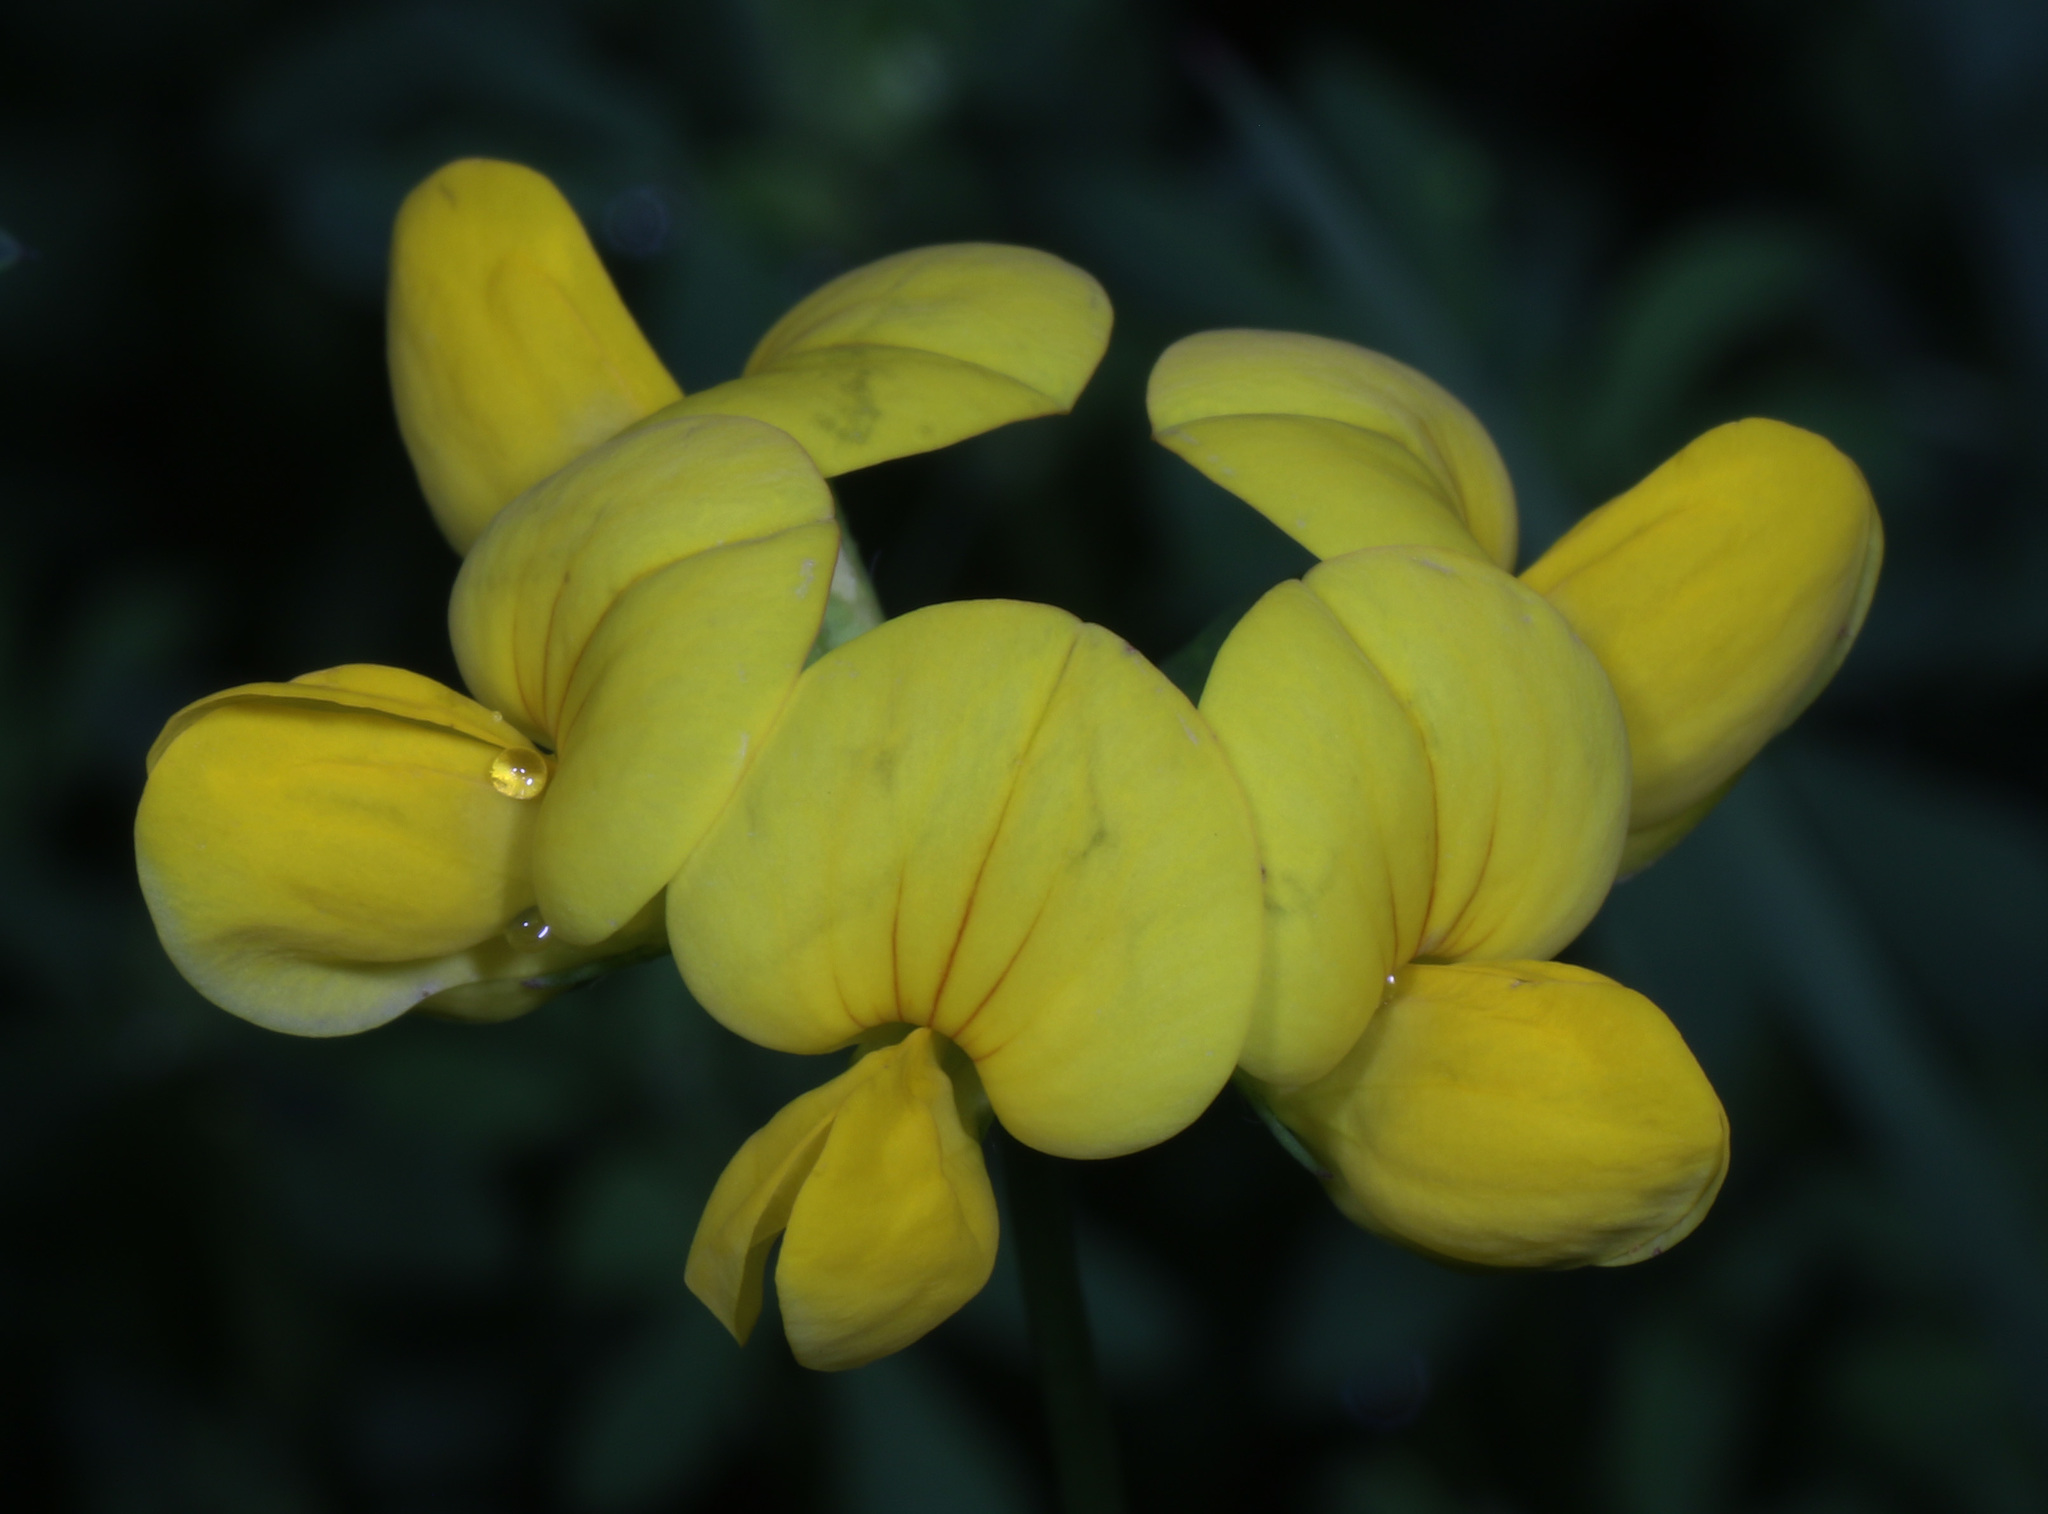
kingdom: Plantae
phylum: Tracheophyta
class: Magnoliopsida
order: Fabales
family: Fabaceae
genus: Lotus
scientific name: Lotus corniculatus
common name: Common bird's-foot-trefoil
